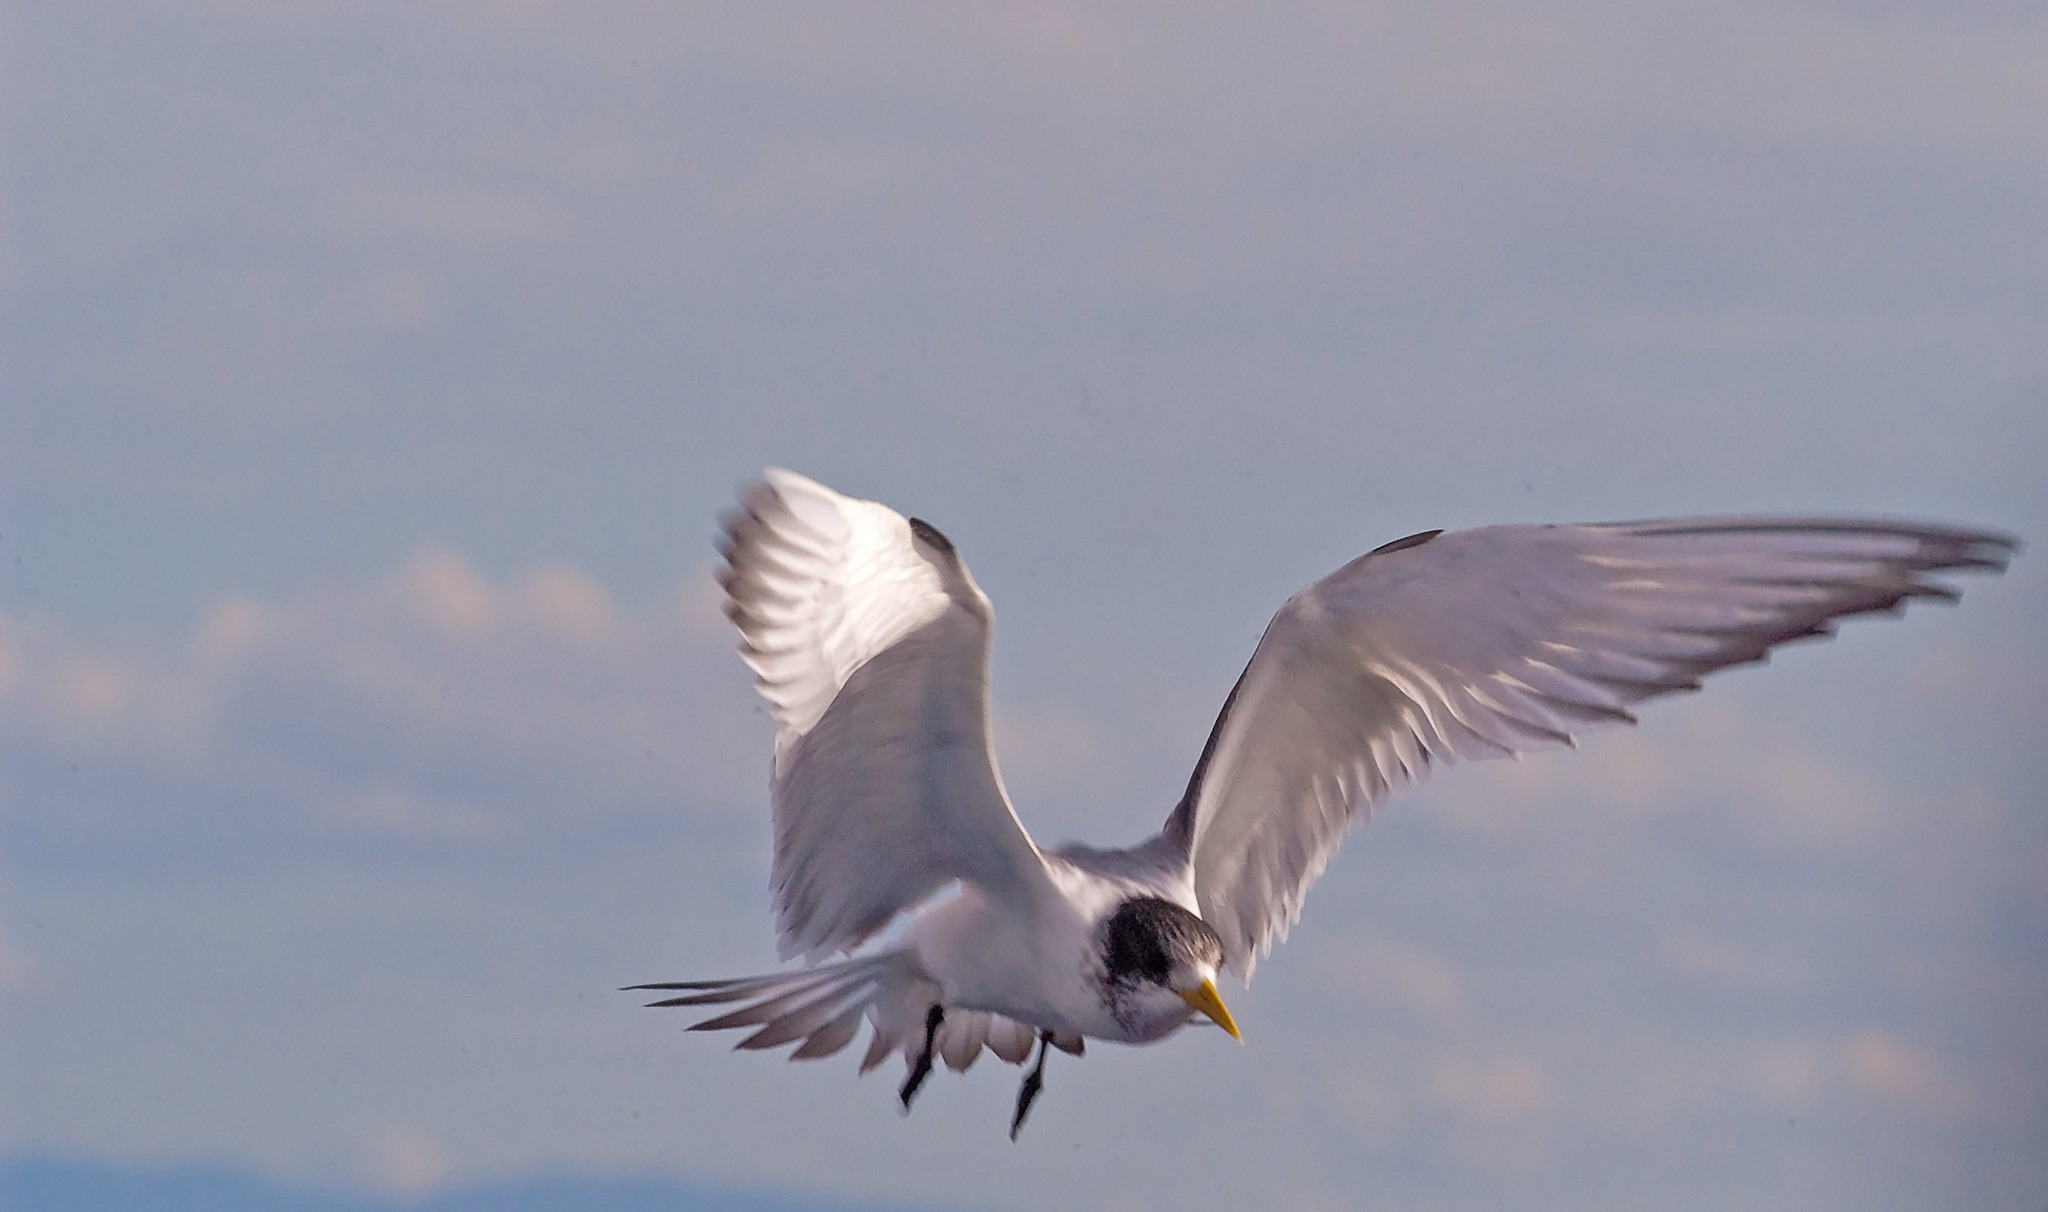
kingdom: Animalia
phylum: Chordata
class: Aves
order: Charadriiformes
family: Laridae
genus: Thalasseus
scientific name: Thalasseus bergii
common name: Greater crested tern
